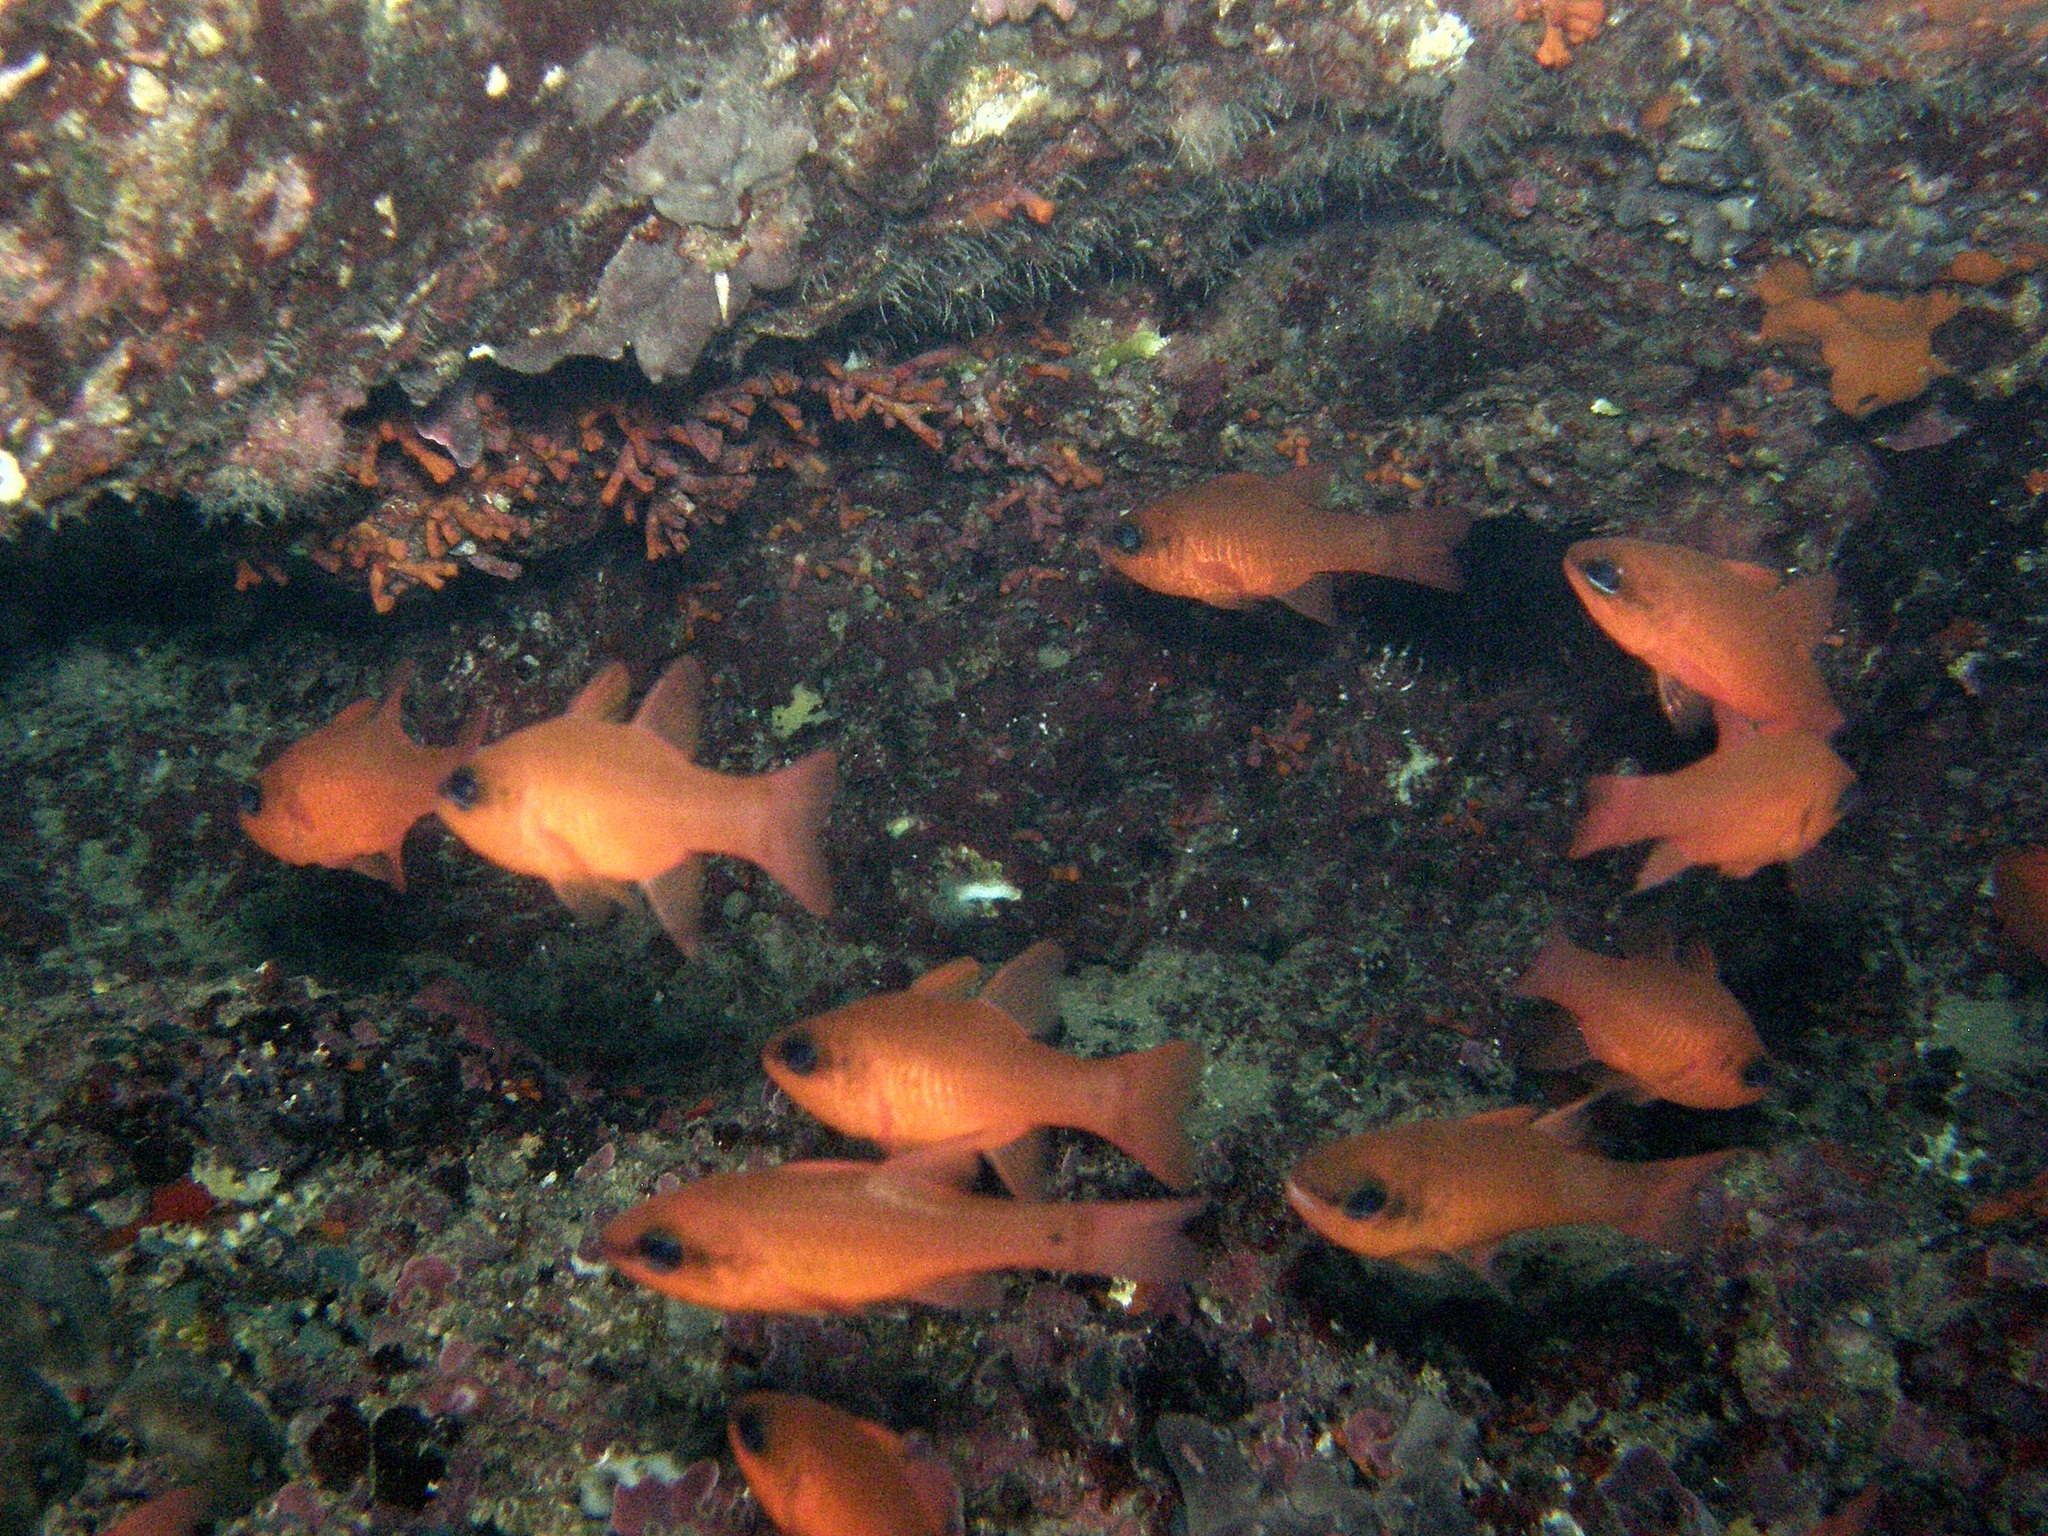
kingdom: Animalia
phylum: Chordata
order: Perciformes
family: Apogonidae
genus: Apogon
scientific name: Apogon imberbis
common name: Cardinal fish
